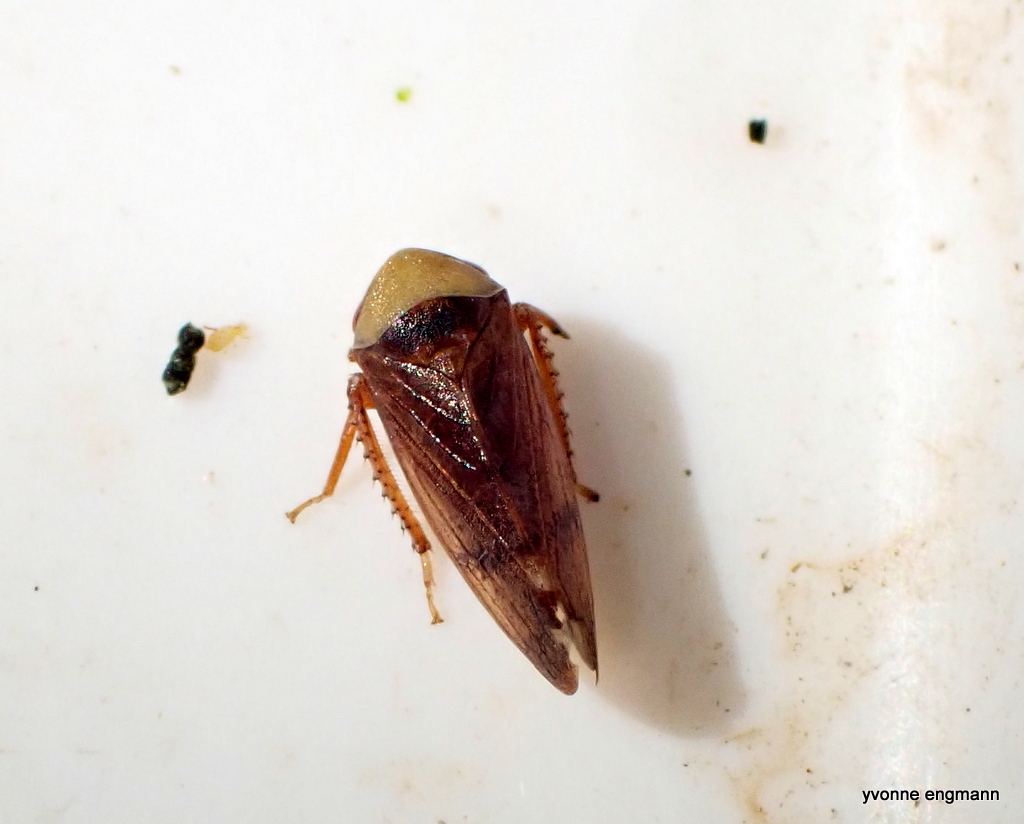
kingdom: Animalia
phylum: Arthropoda
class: Insecta
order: Hemiptera
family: Cicadellidae
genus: Pediopsis
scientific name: Pediopsis tiliae
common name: Leafhopper
